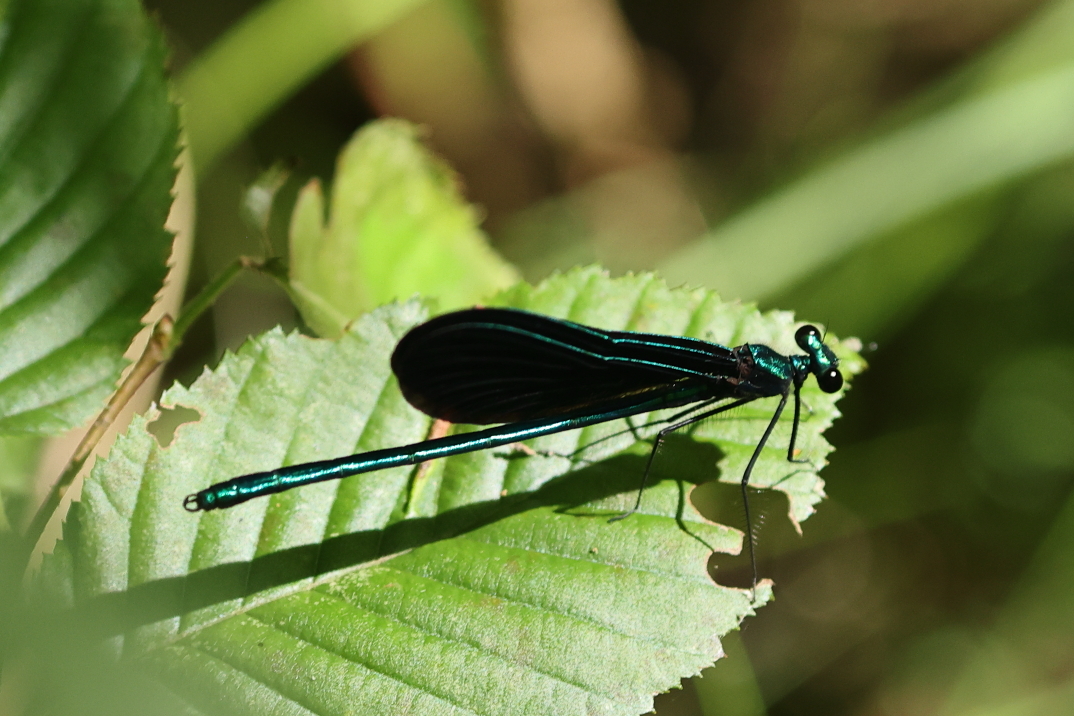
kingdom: Animalia
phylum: Arthropoda
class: Insecta
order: Odonata
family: Calopterygidae
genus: Calopteryx
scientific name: Calopteryx maculata
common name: Ebony jewelwing
